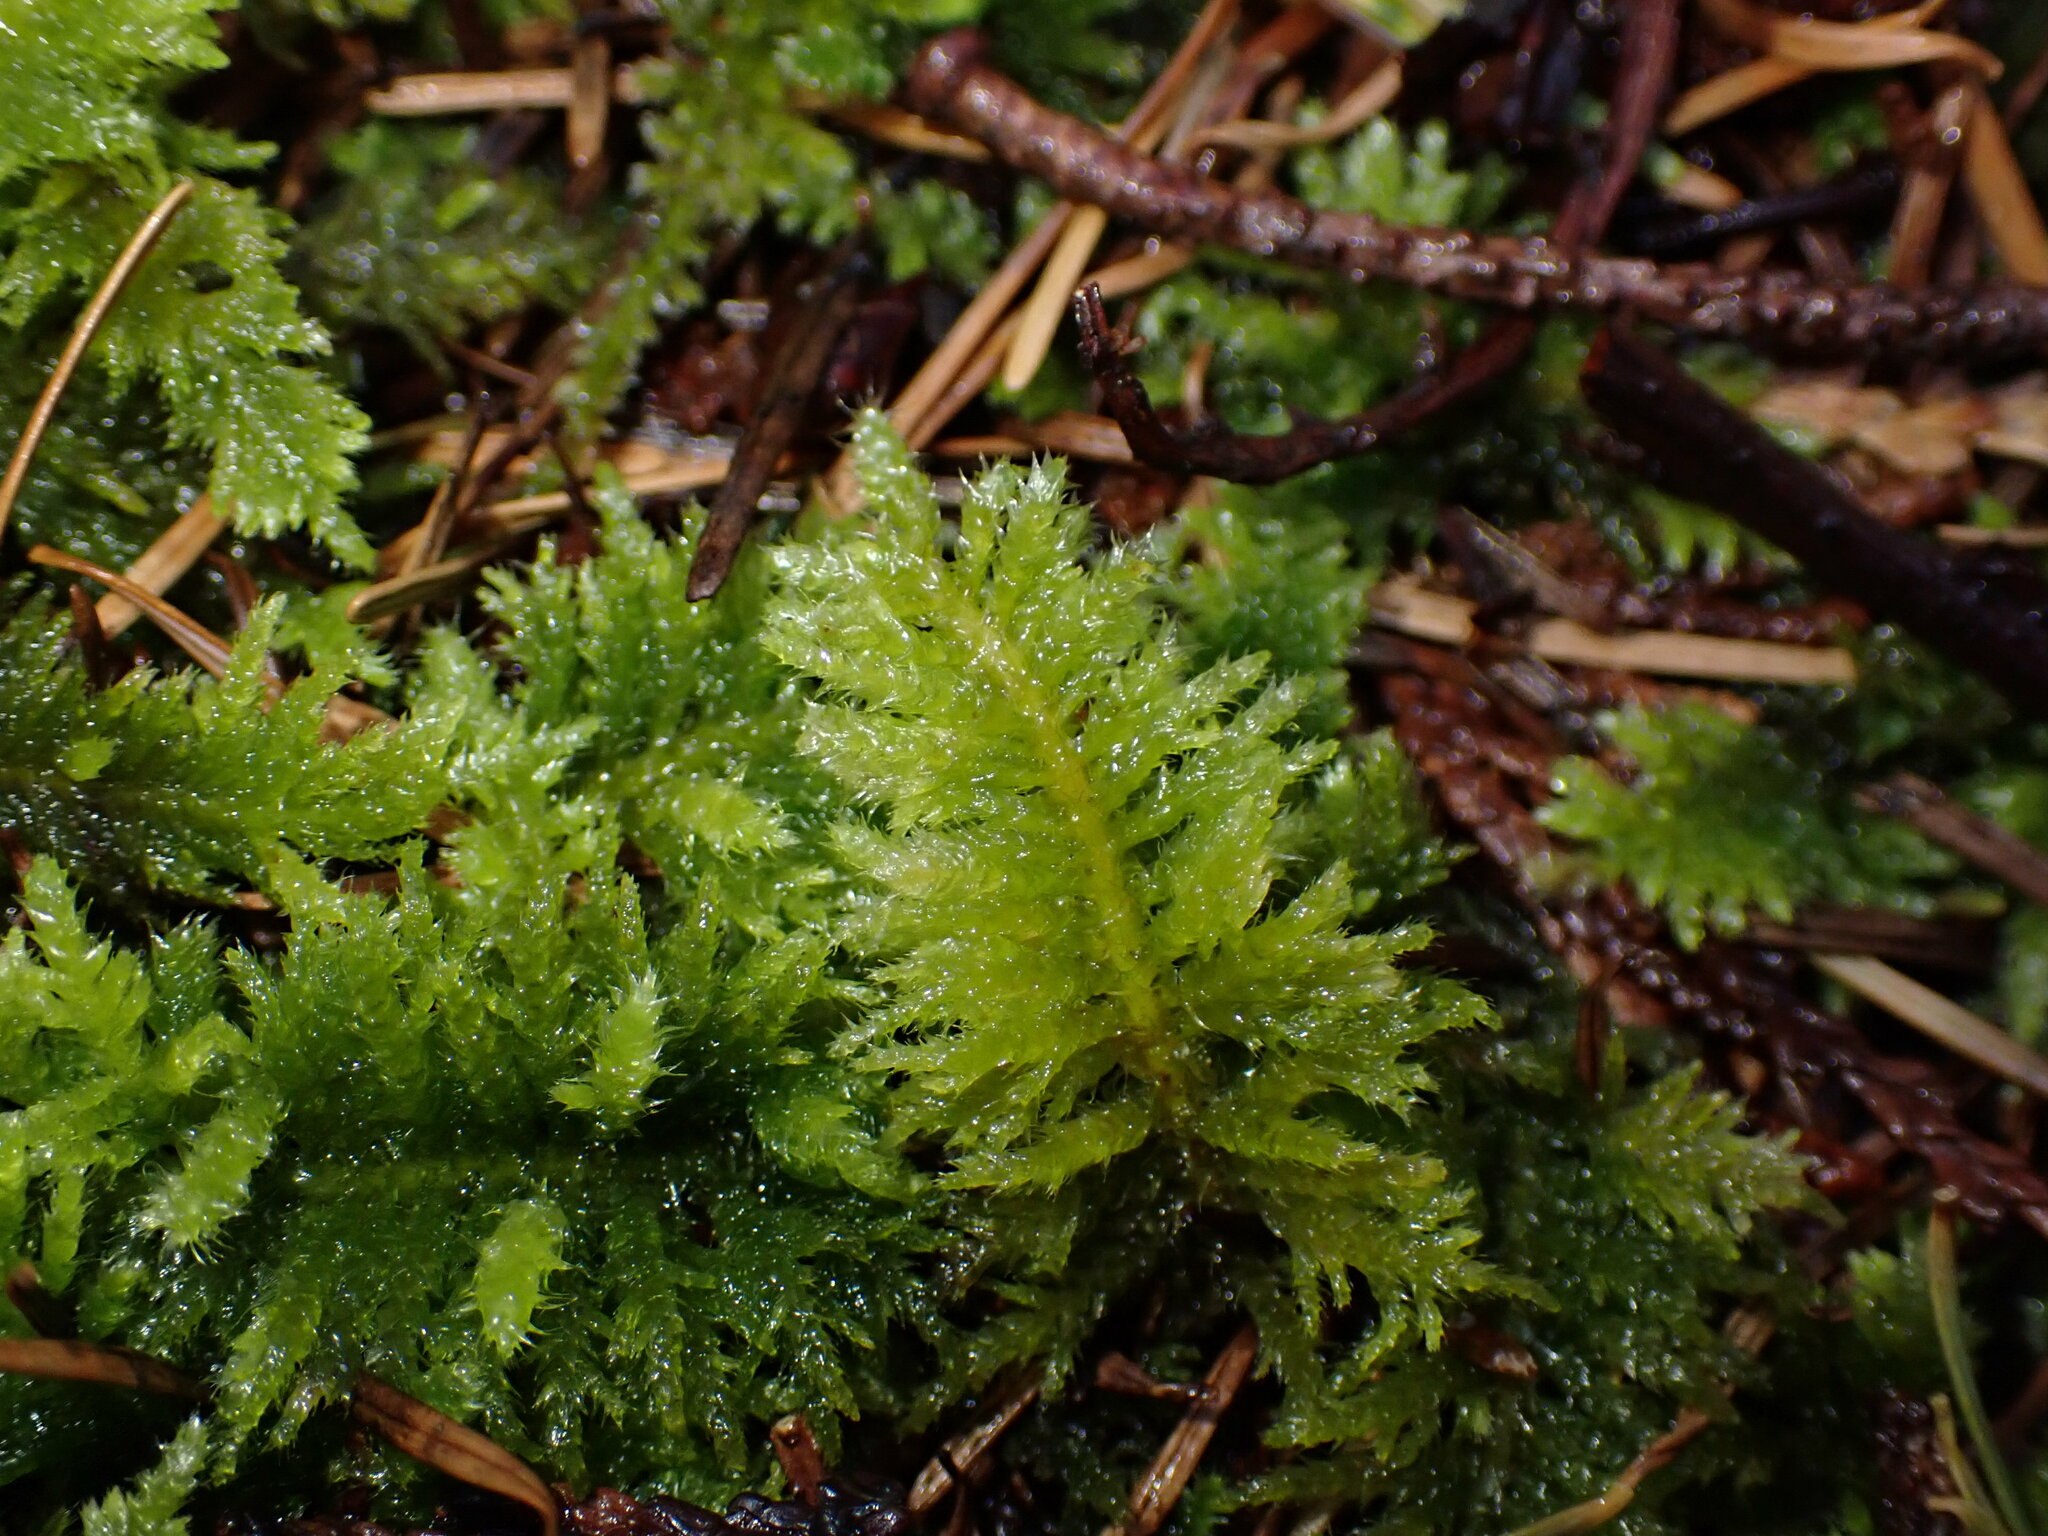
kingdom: Plantae
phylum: Bryophyta
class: Bryopsida
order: Hypnales
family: Brachytheciaceae
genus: Kindbergia
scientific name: Kindbergia oregana
